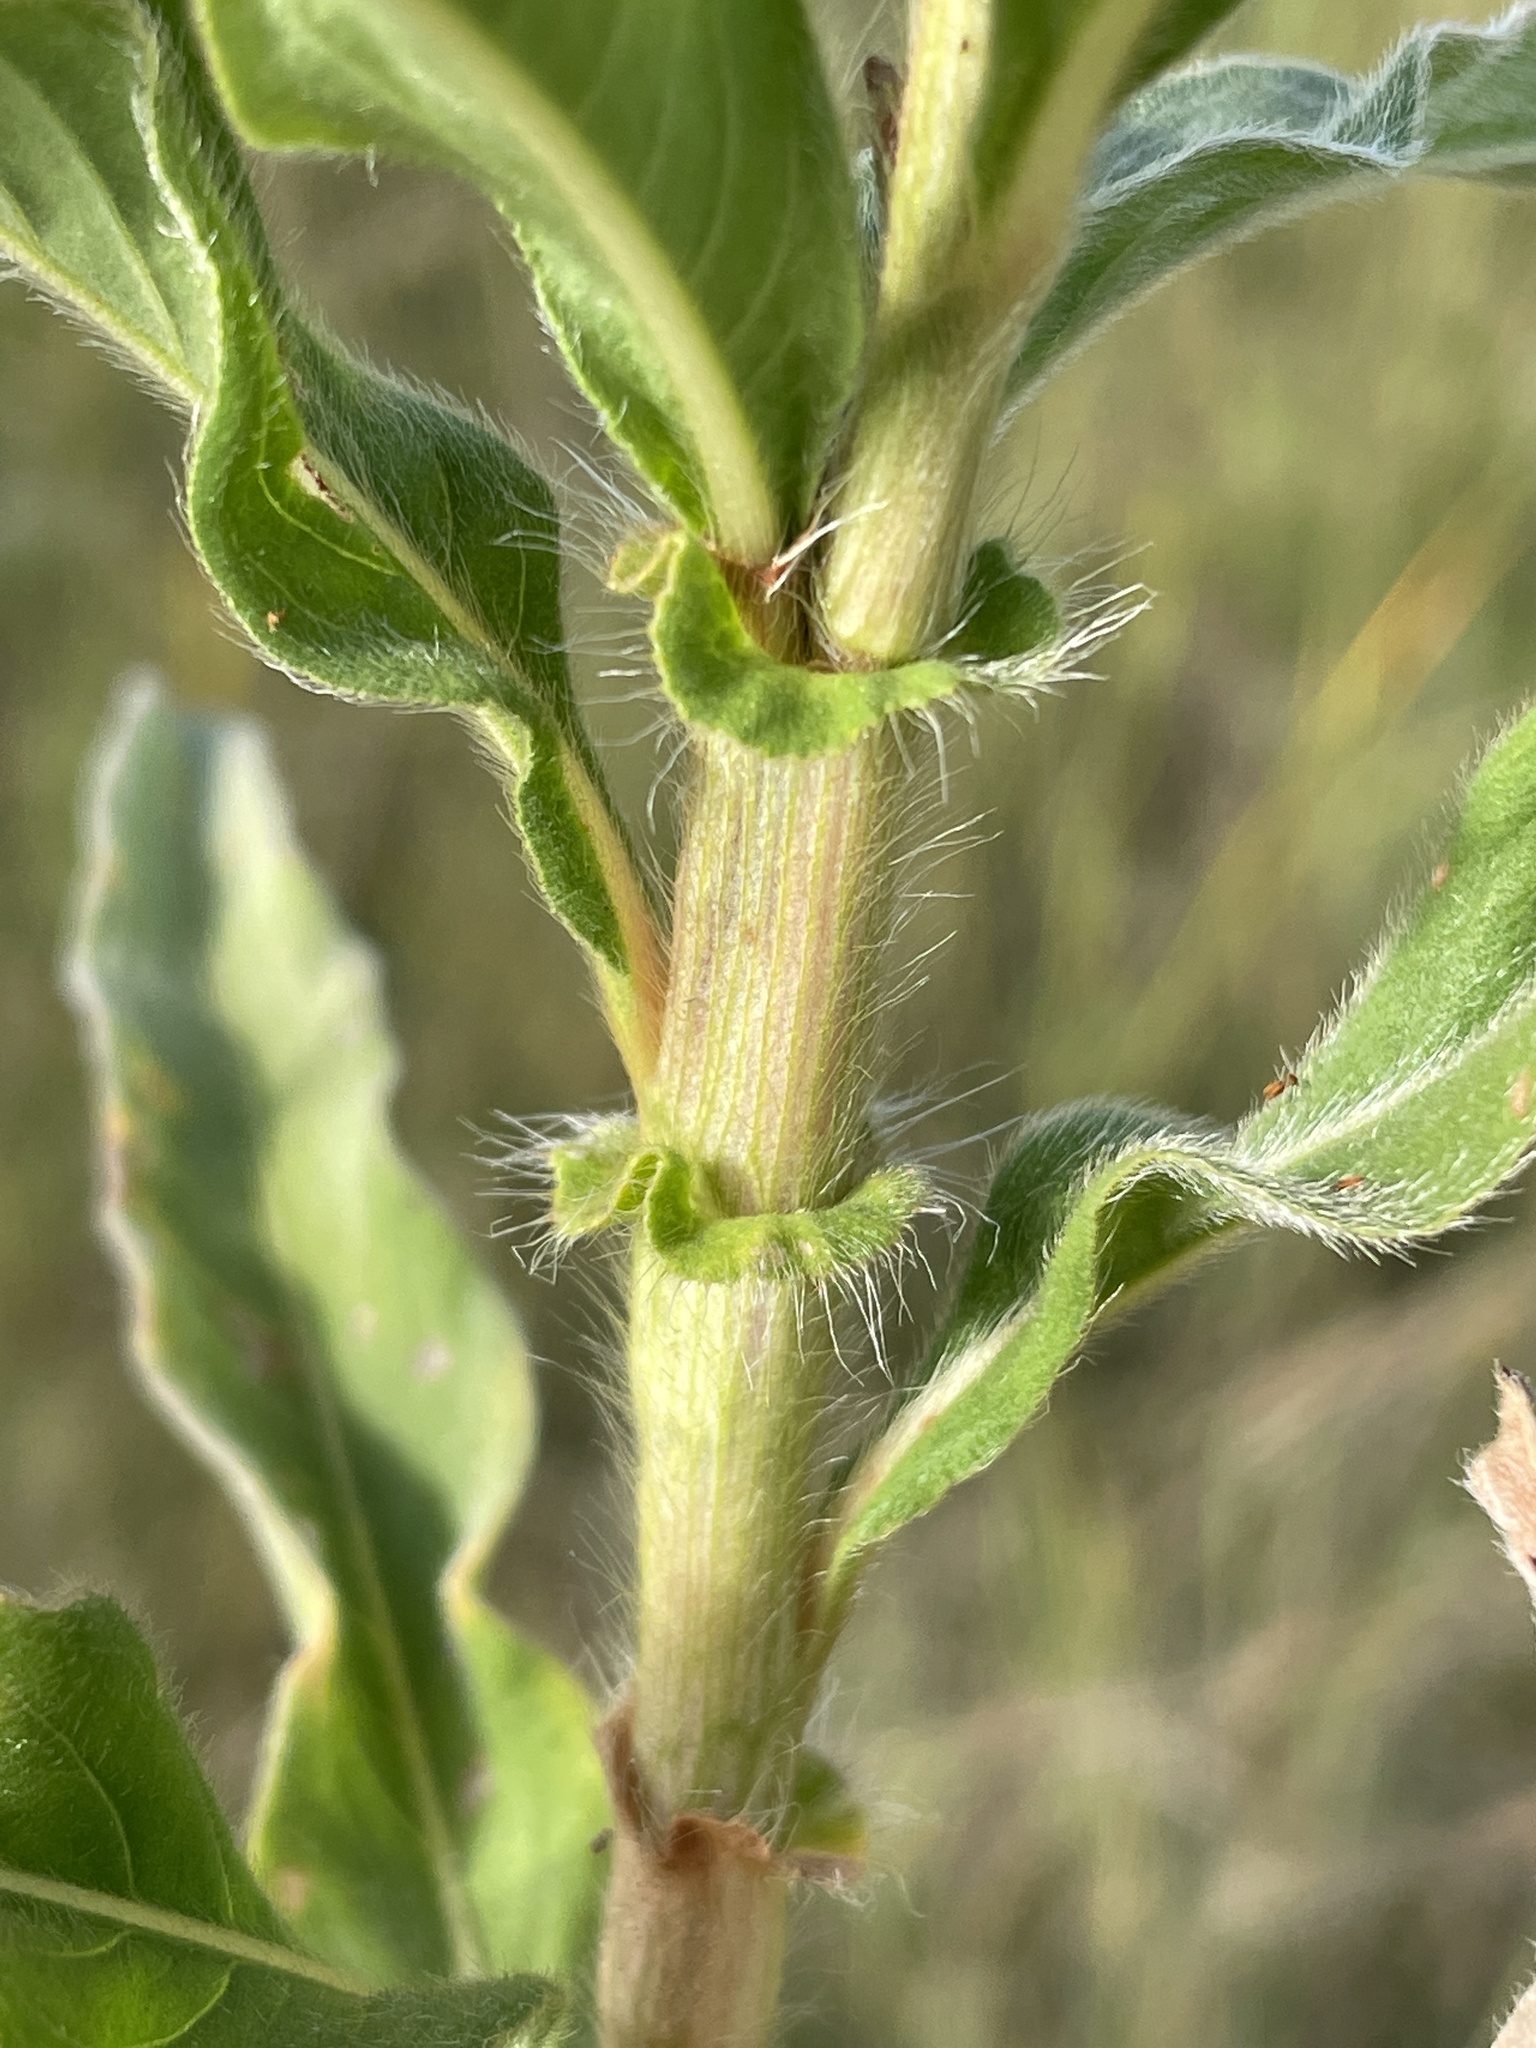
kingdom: Plantae
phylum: Tracheophyta
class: Magnoliopsida
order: Caryophyllales
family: Polygonaceae
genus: Persicaria
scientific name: Persicaria limbata
